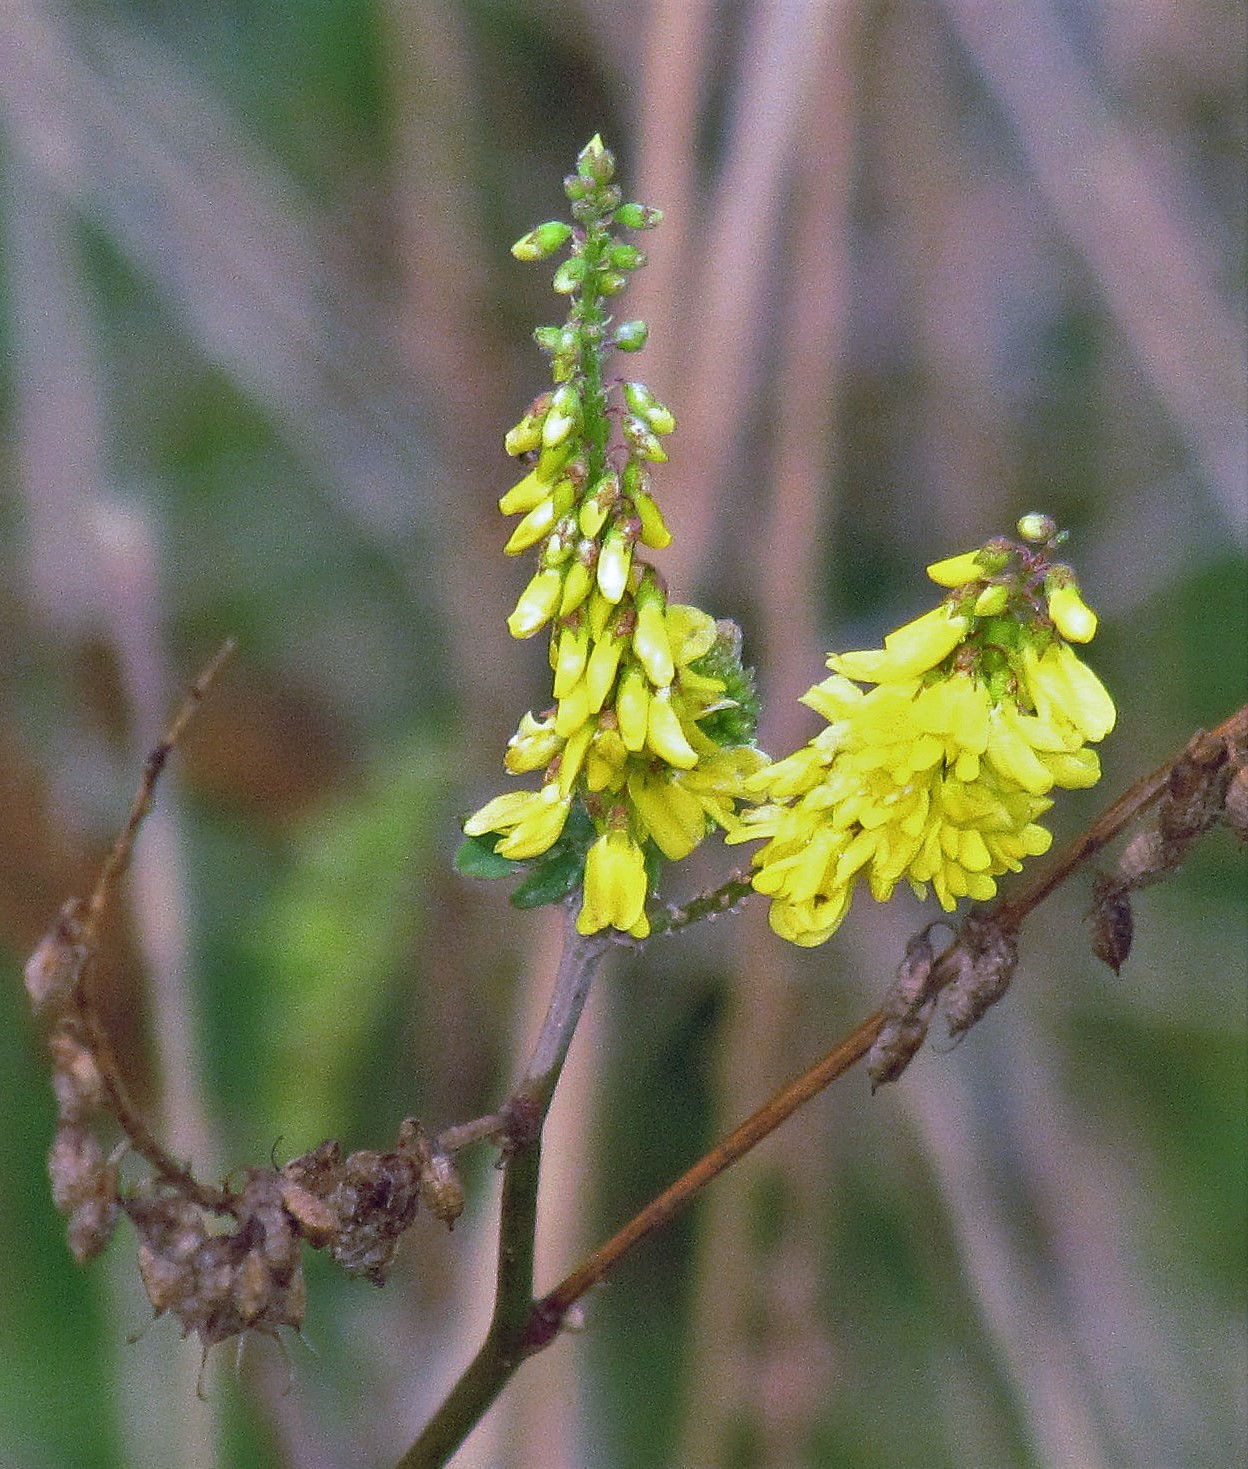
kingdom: Plantae
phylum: Tracheophyta
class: Magnoliopsida
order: Fabales
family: Fabaceae
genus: Melilotus
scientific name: Melilotus officinalis
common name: Sweetclover
